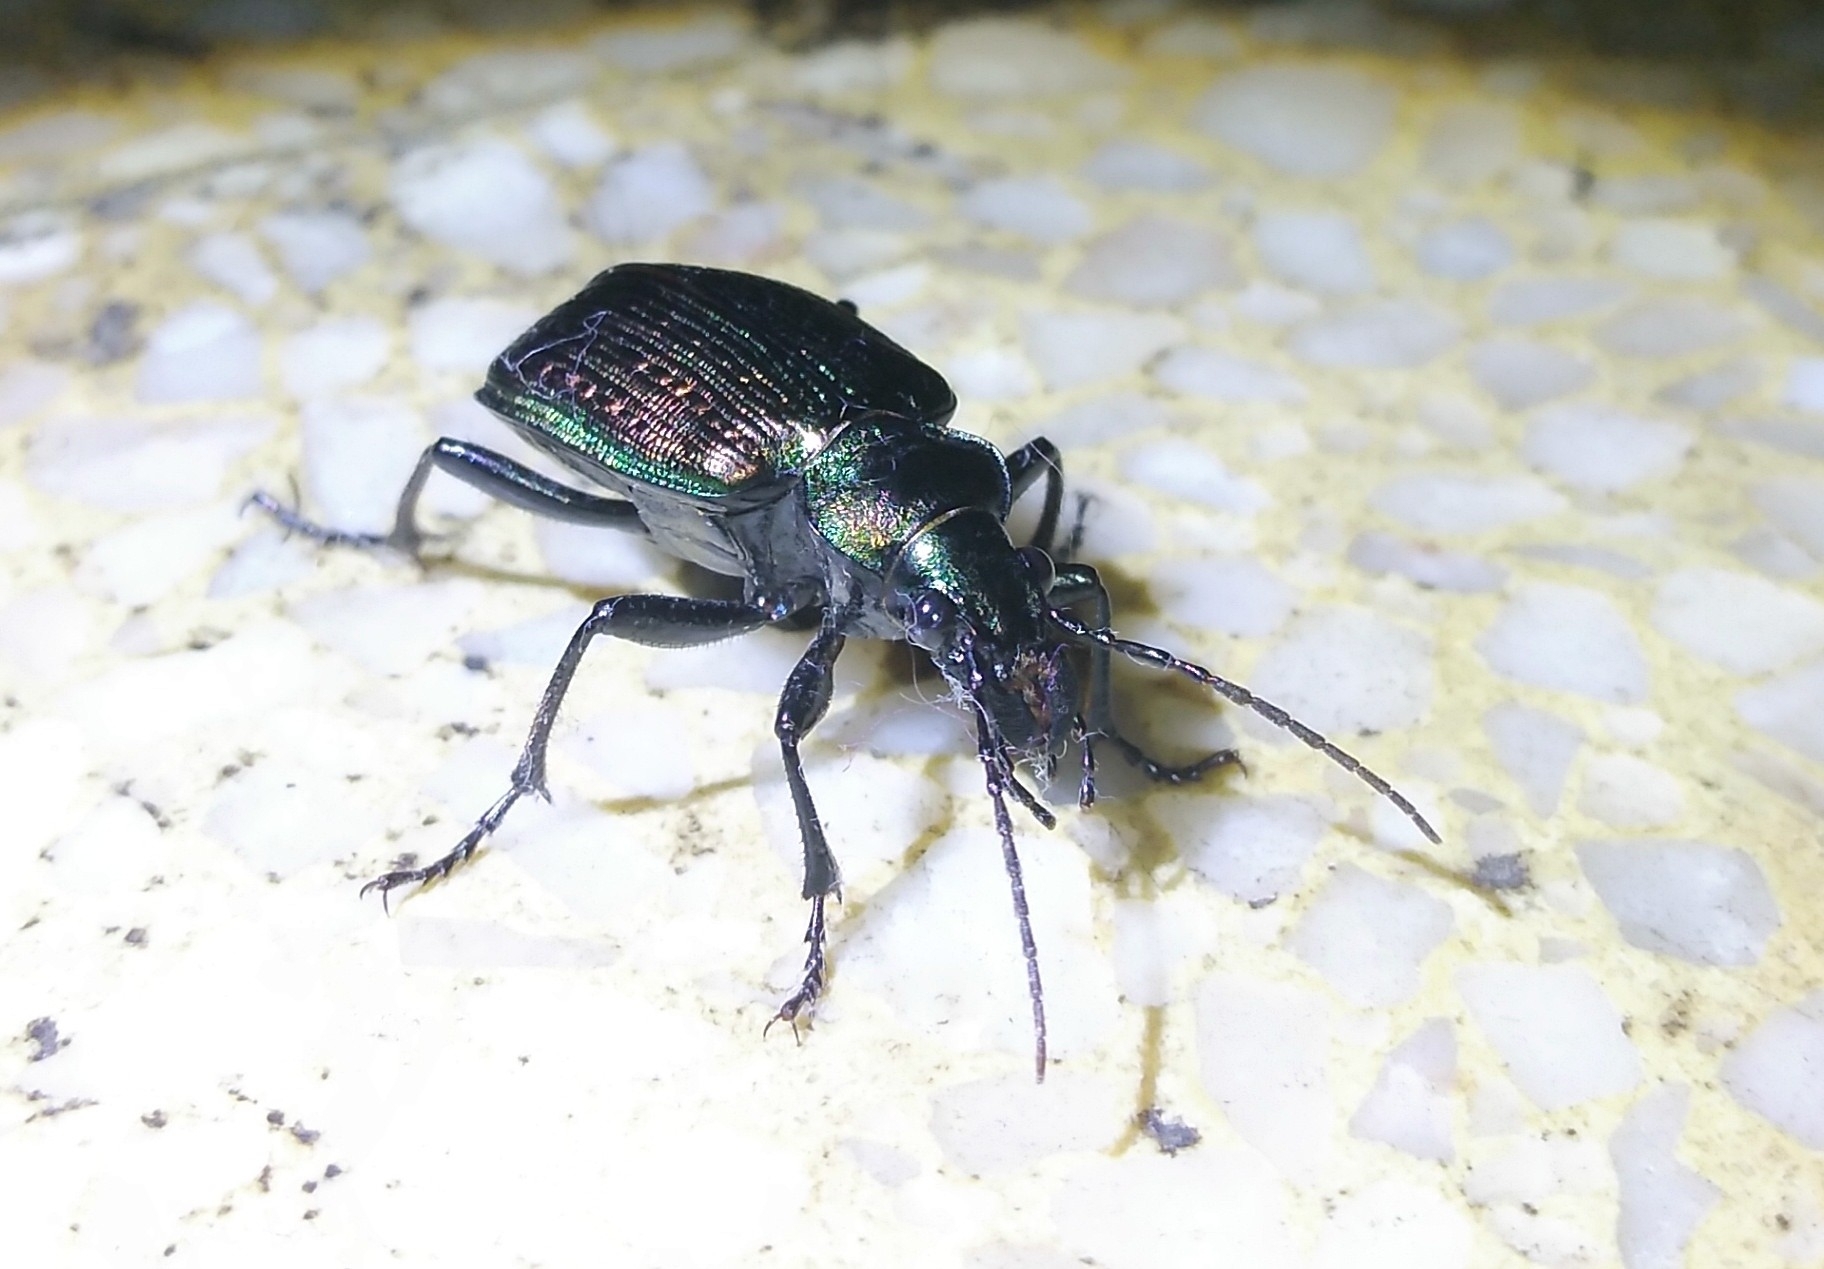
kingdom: Animalia
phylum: Arthropoda
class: Insecta
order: Coleoptera
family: Carabidae
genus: Calosoma
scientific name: Calosoma alternans
